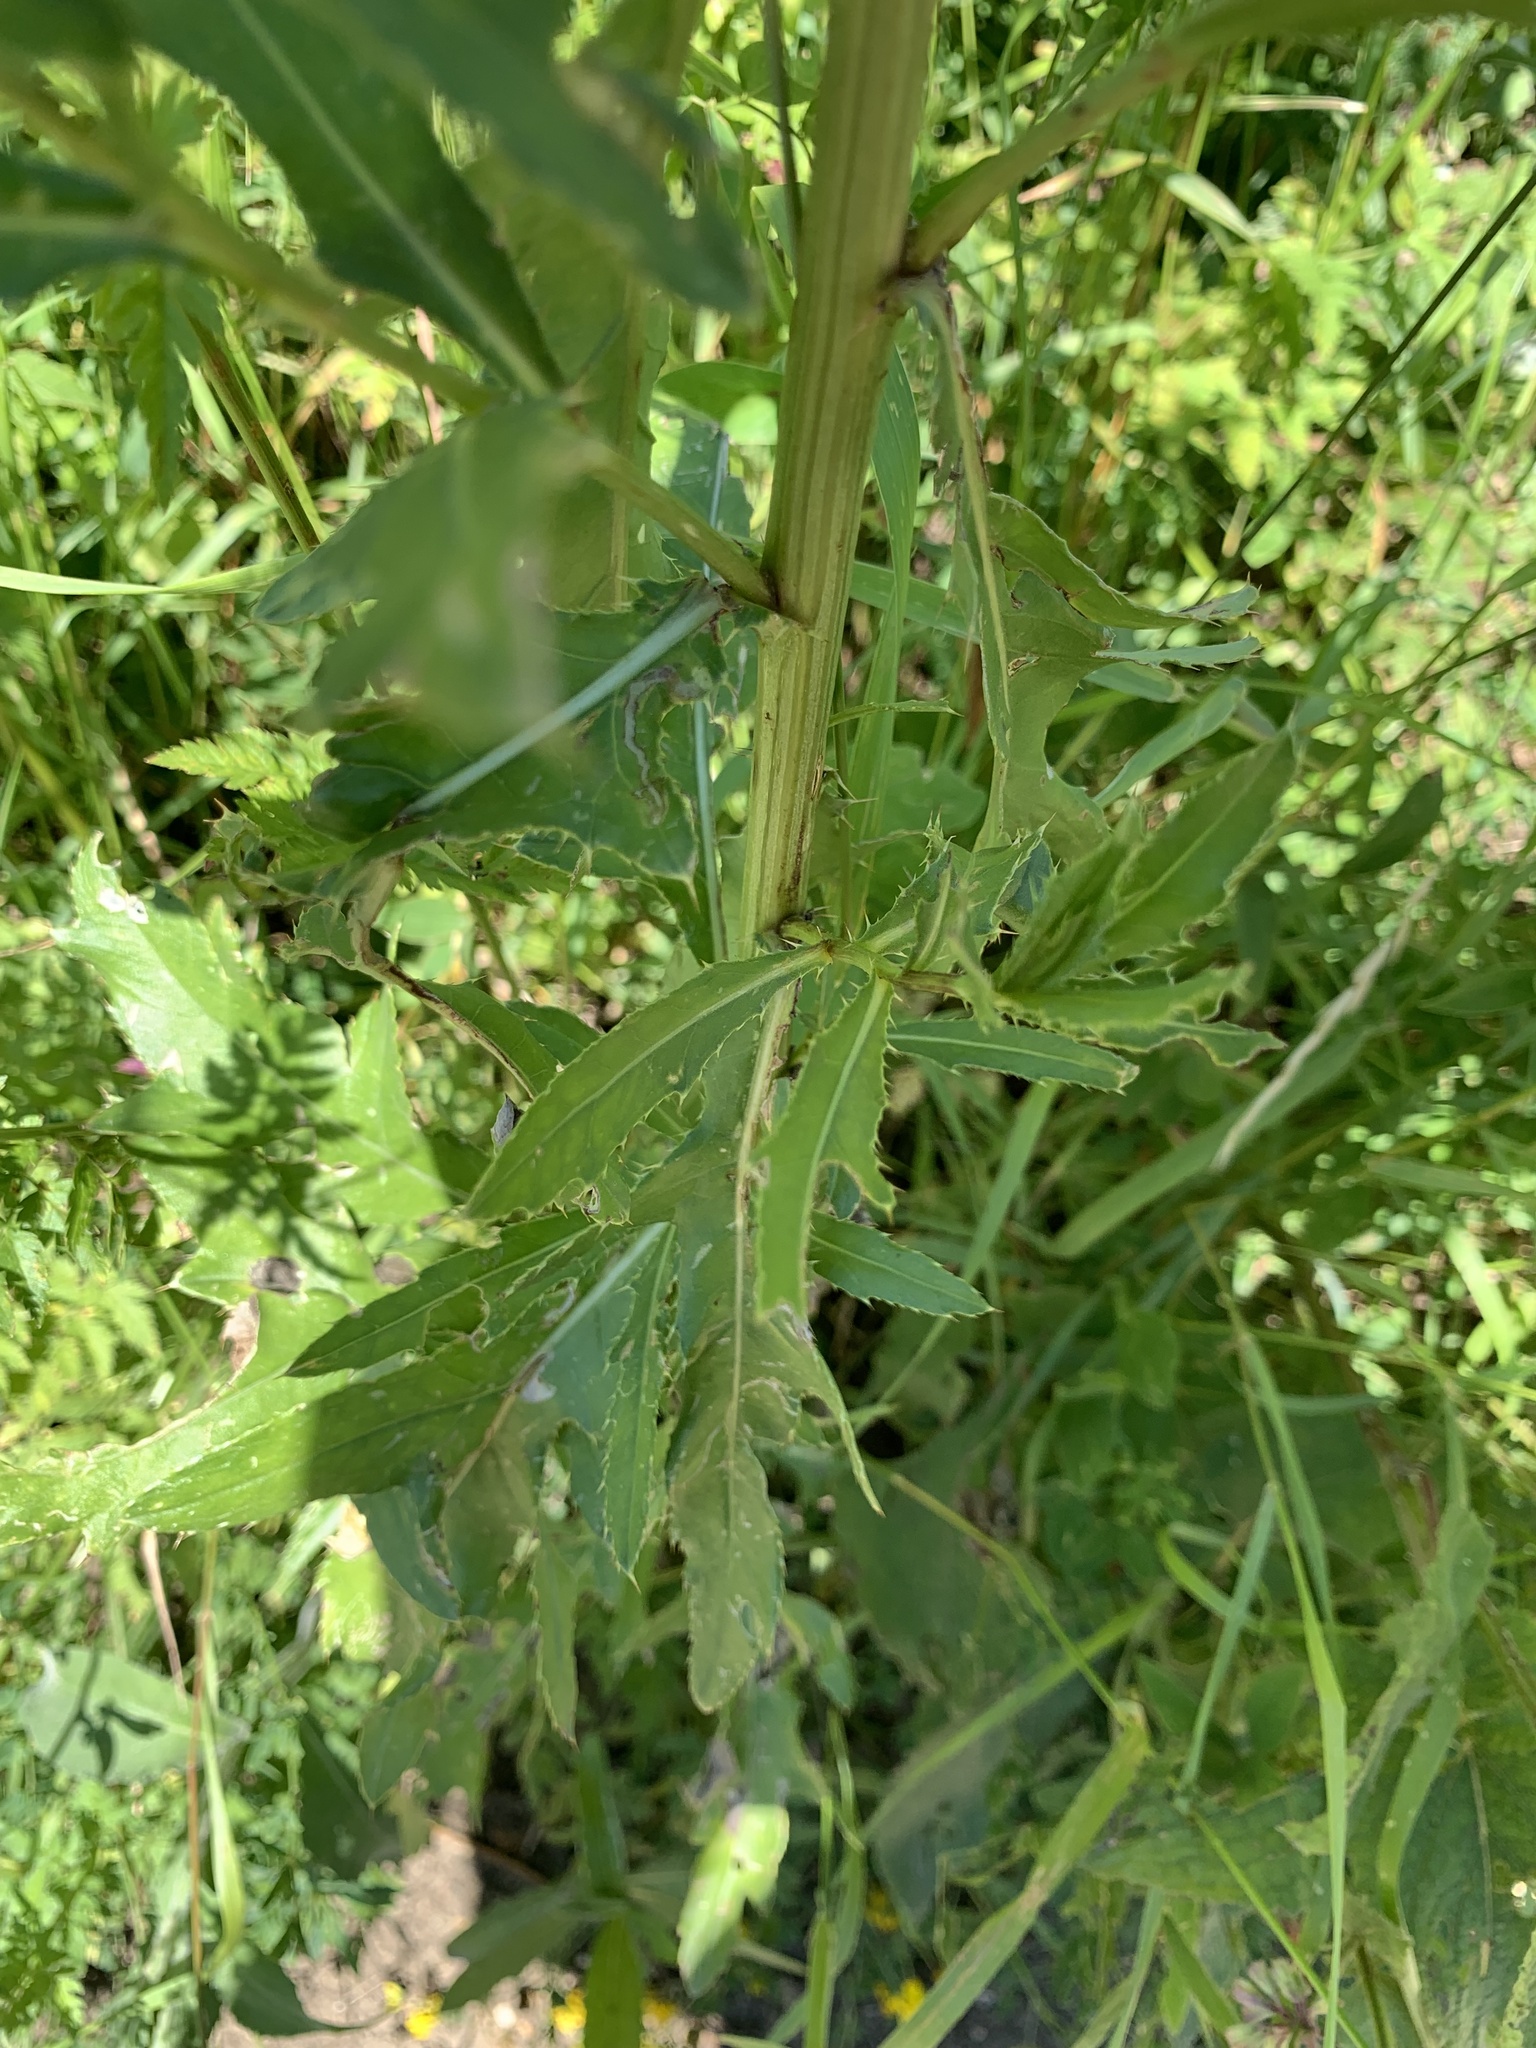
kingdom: Plantae
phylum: Tracheophyta
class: Magnoliopsida
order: Asterales
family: Asteraceae
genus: Cirsium
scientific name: Cirsium arvense
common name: Creeping thistle
